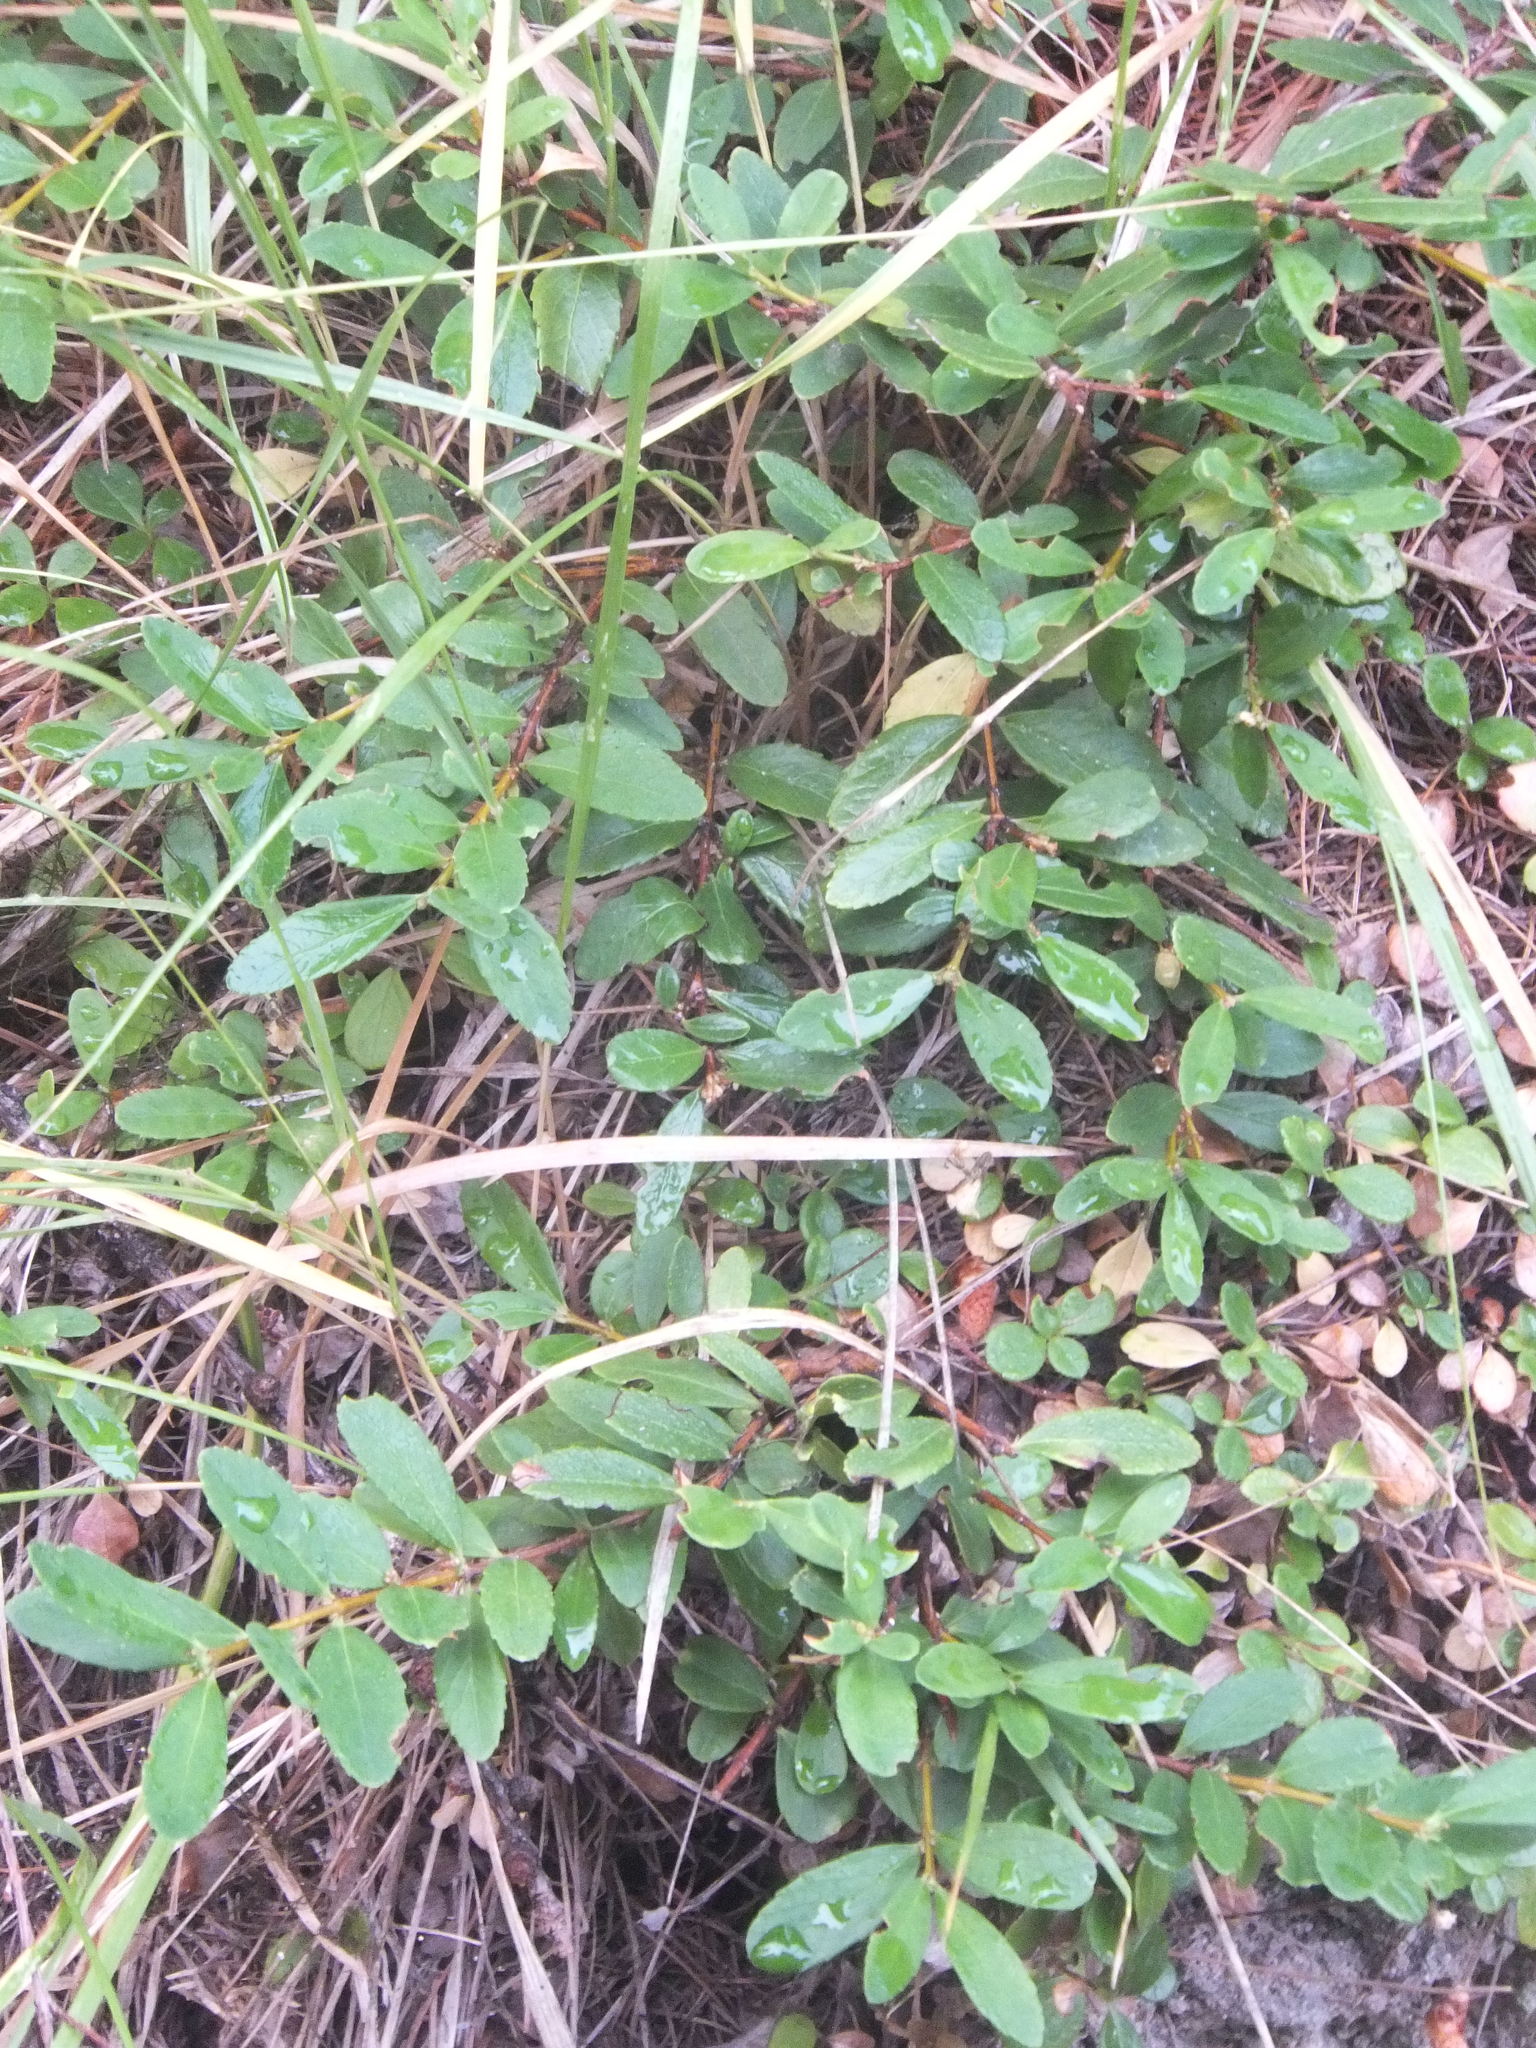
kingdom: Plantae
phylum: Tracheophyta
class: Magnoliopsida
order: Celastrales
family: Celastraceae
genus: Paxistima
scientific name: Paxistima myrsinites
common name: Mountain-lover
